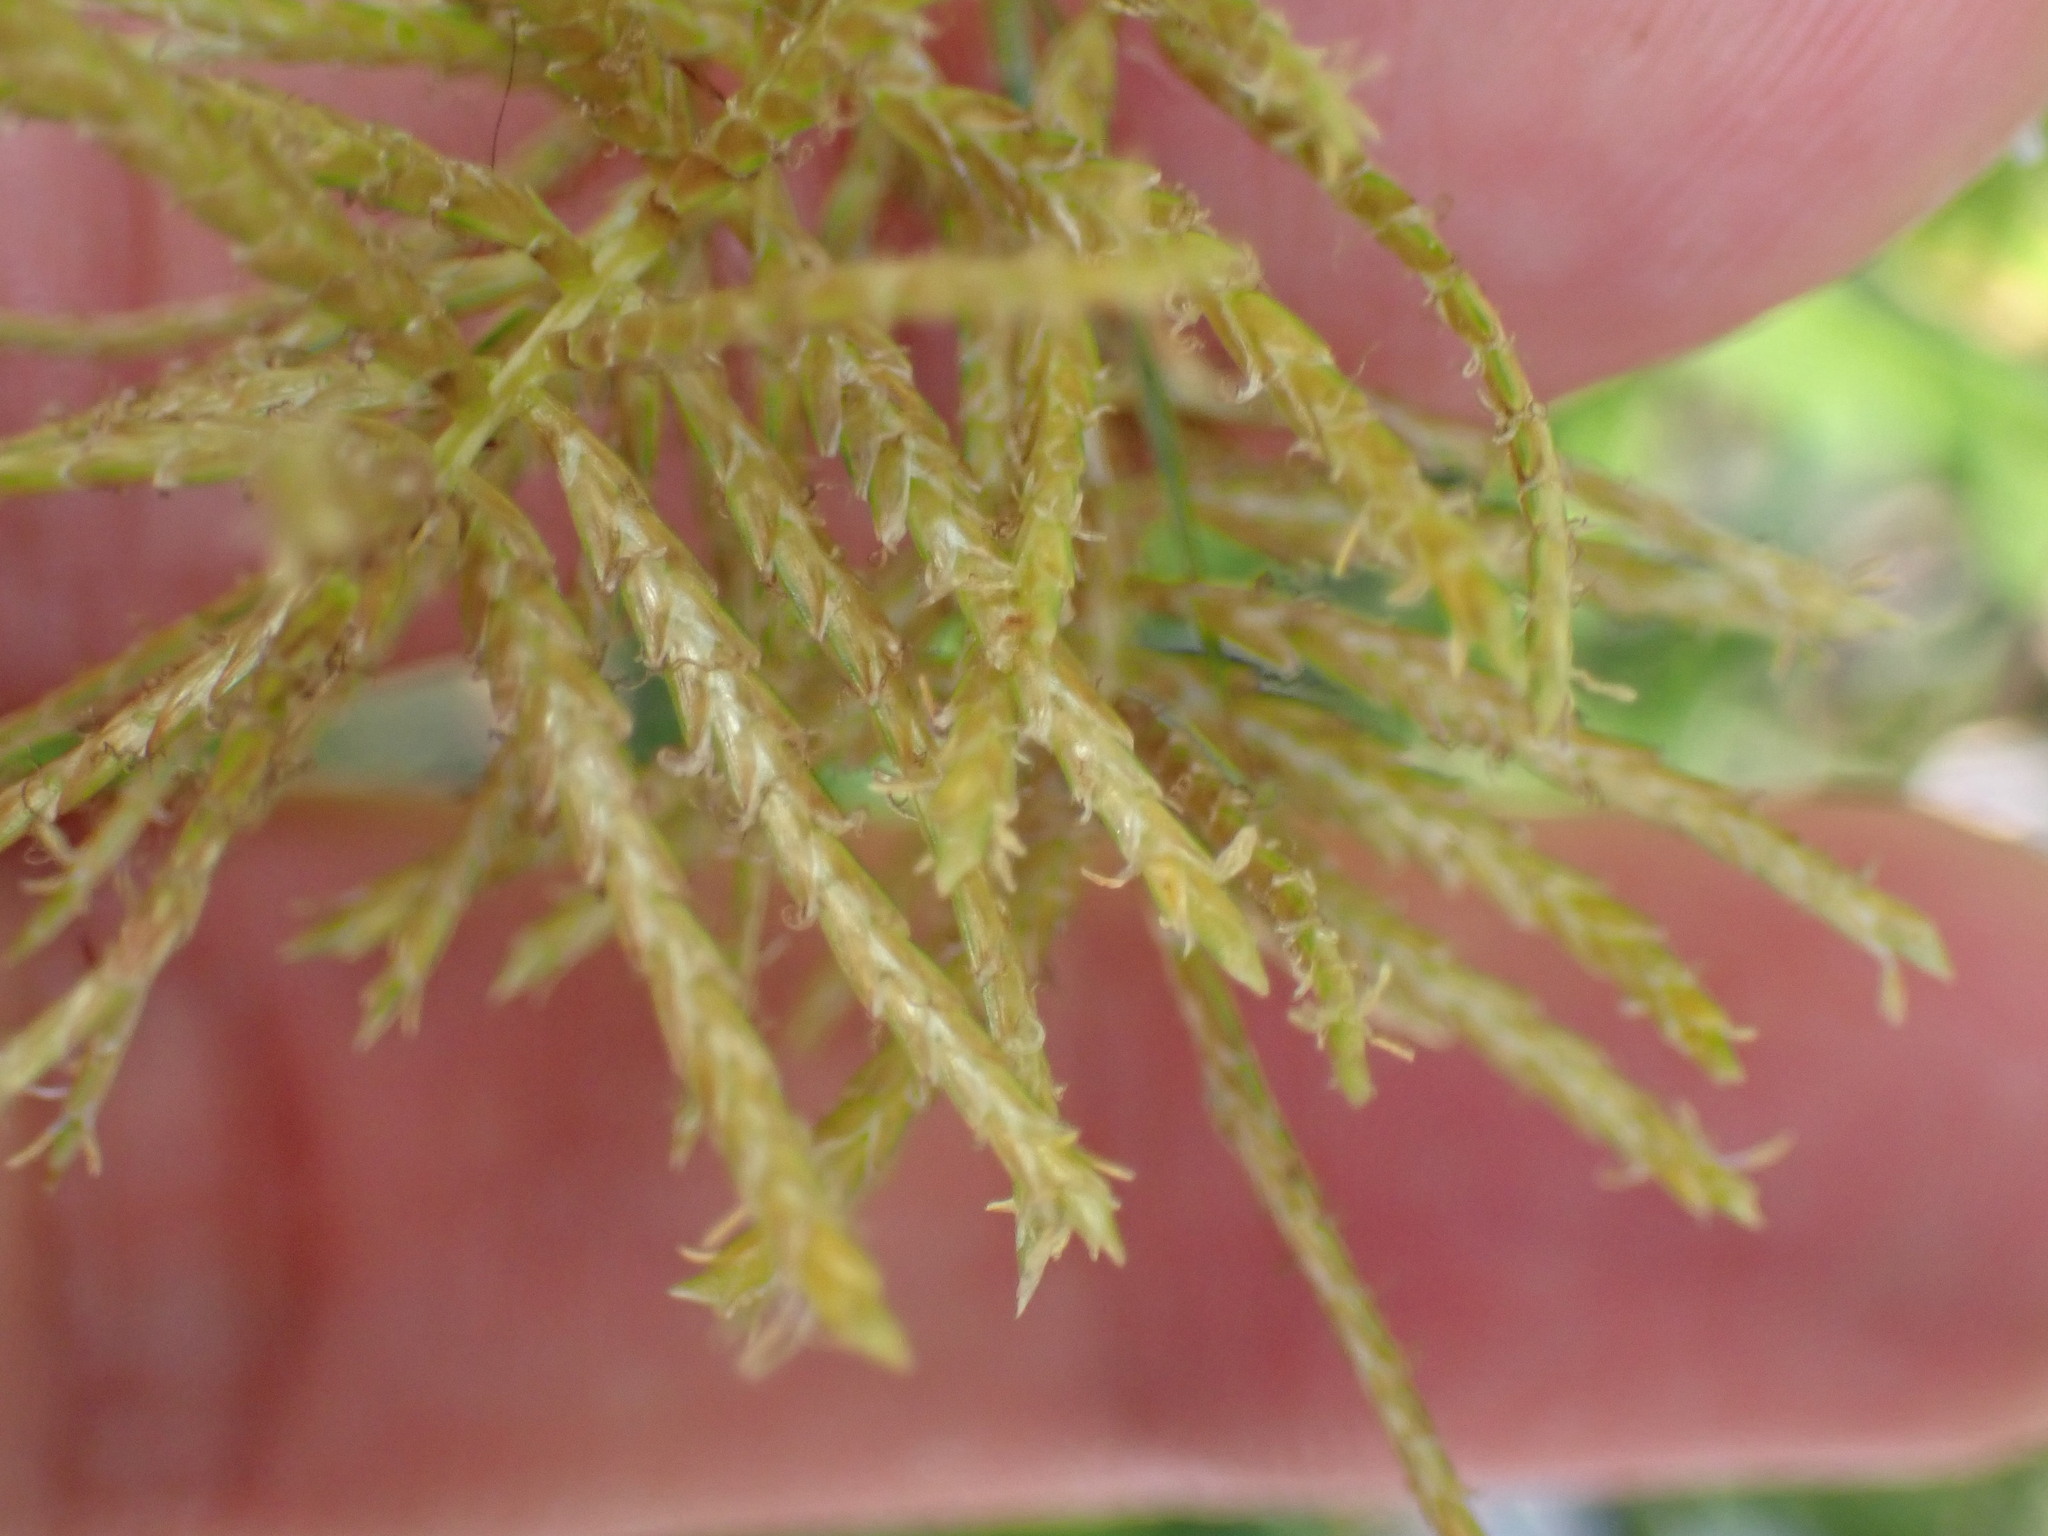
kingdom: Plantae
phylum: Tracheophyta
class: Liliopsida
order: Poales
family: Cyperaceae
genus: Cyperus
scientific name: Cyperus esculentus
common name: Yellow nutsedge
